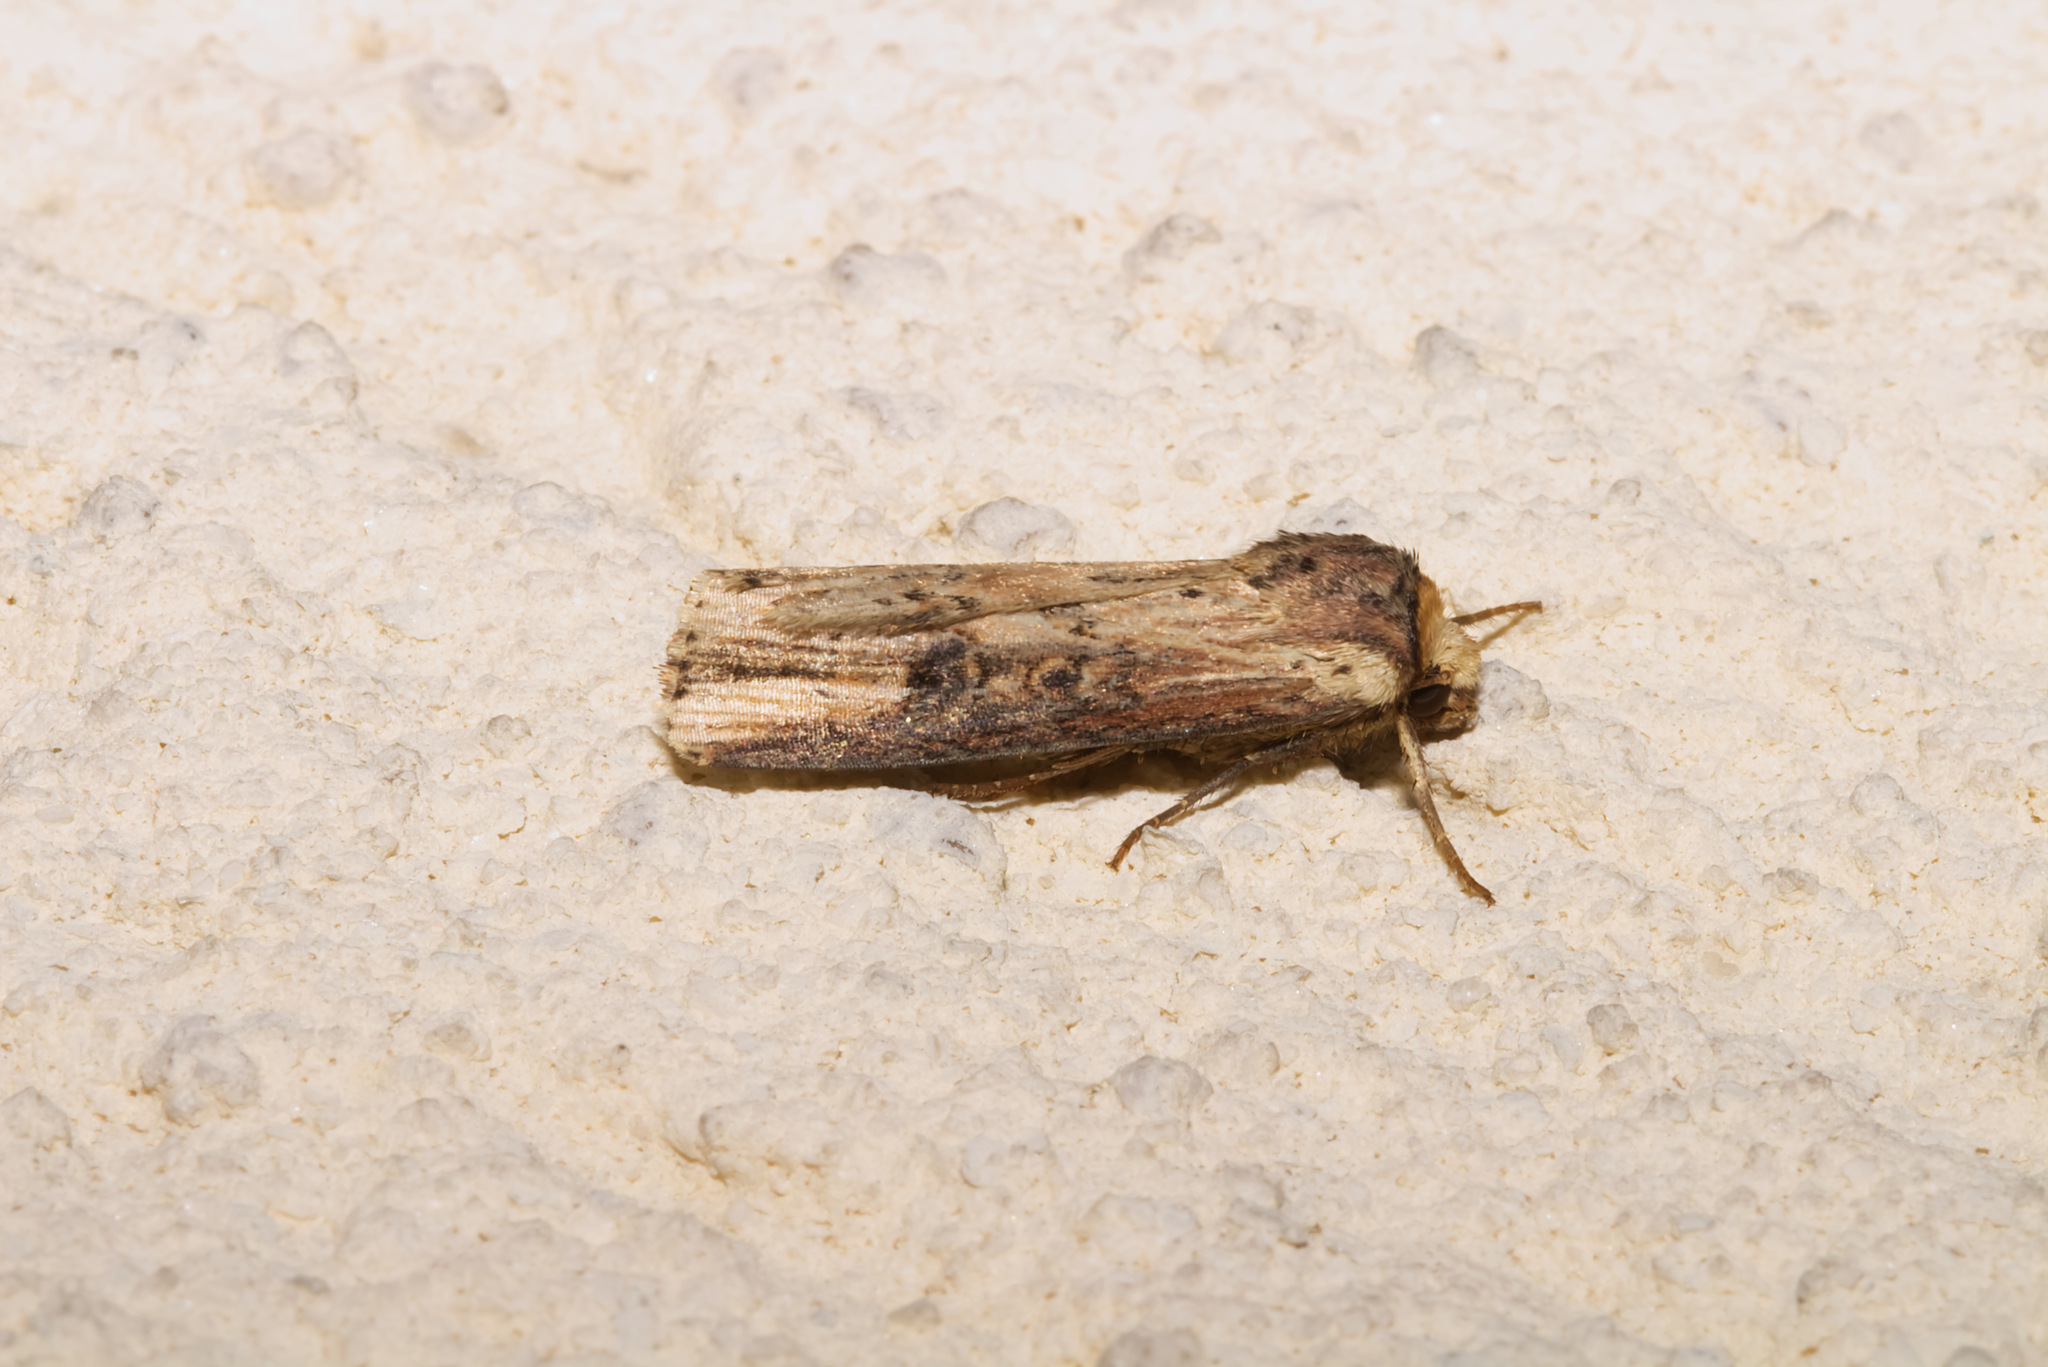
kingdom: Animalia
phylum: Arthropoda
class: Insecta
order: Lepidoptera
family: Noctuidae
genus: Axylia
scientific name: Axylia putris
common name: Flame
